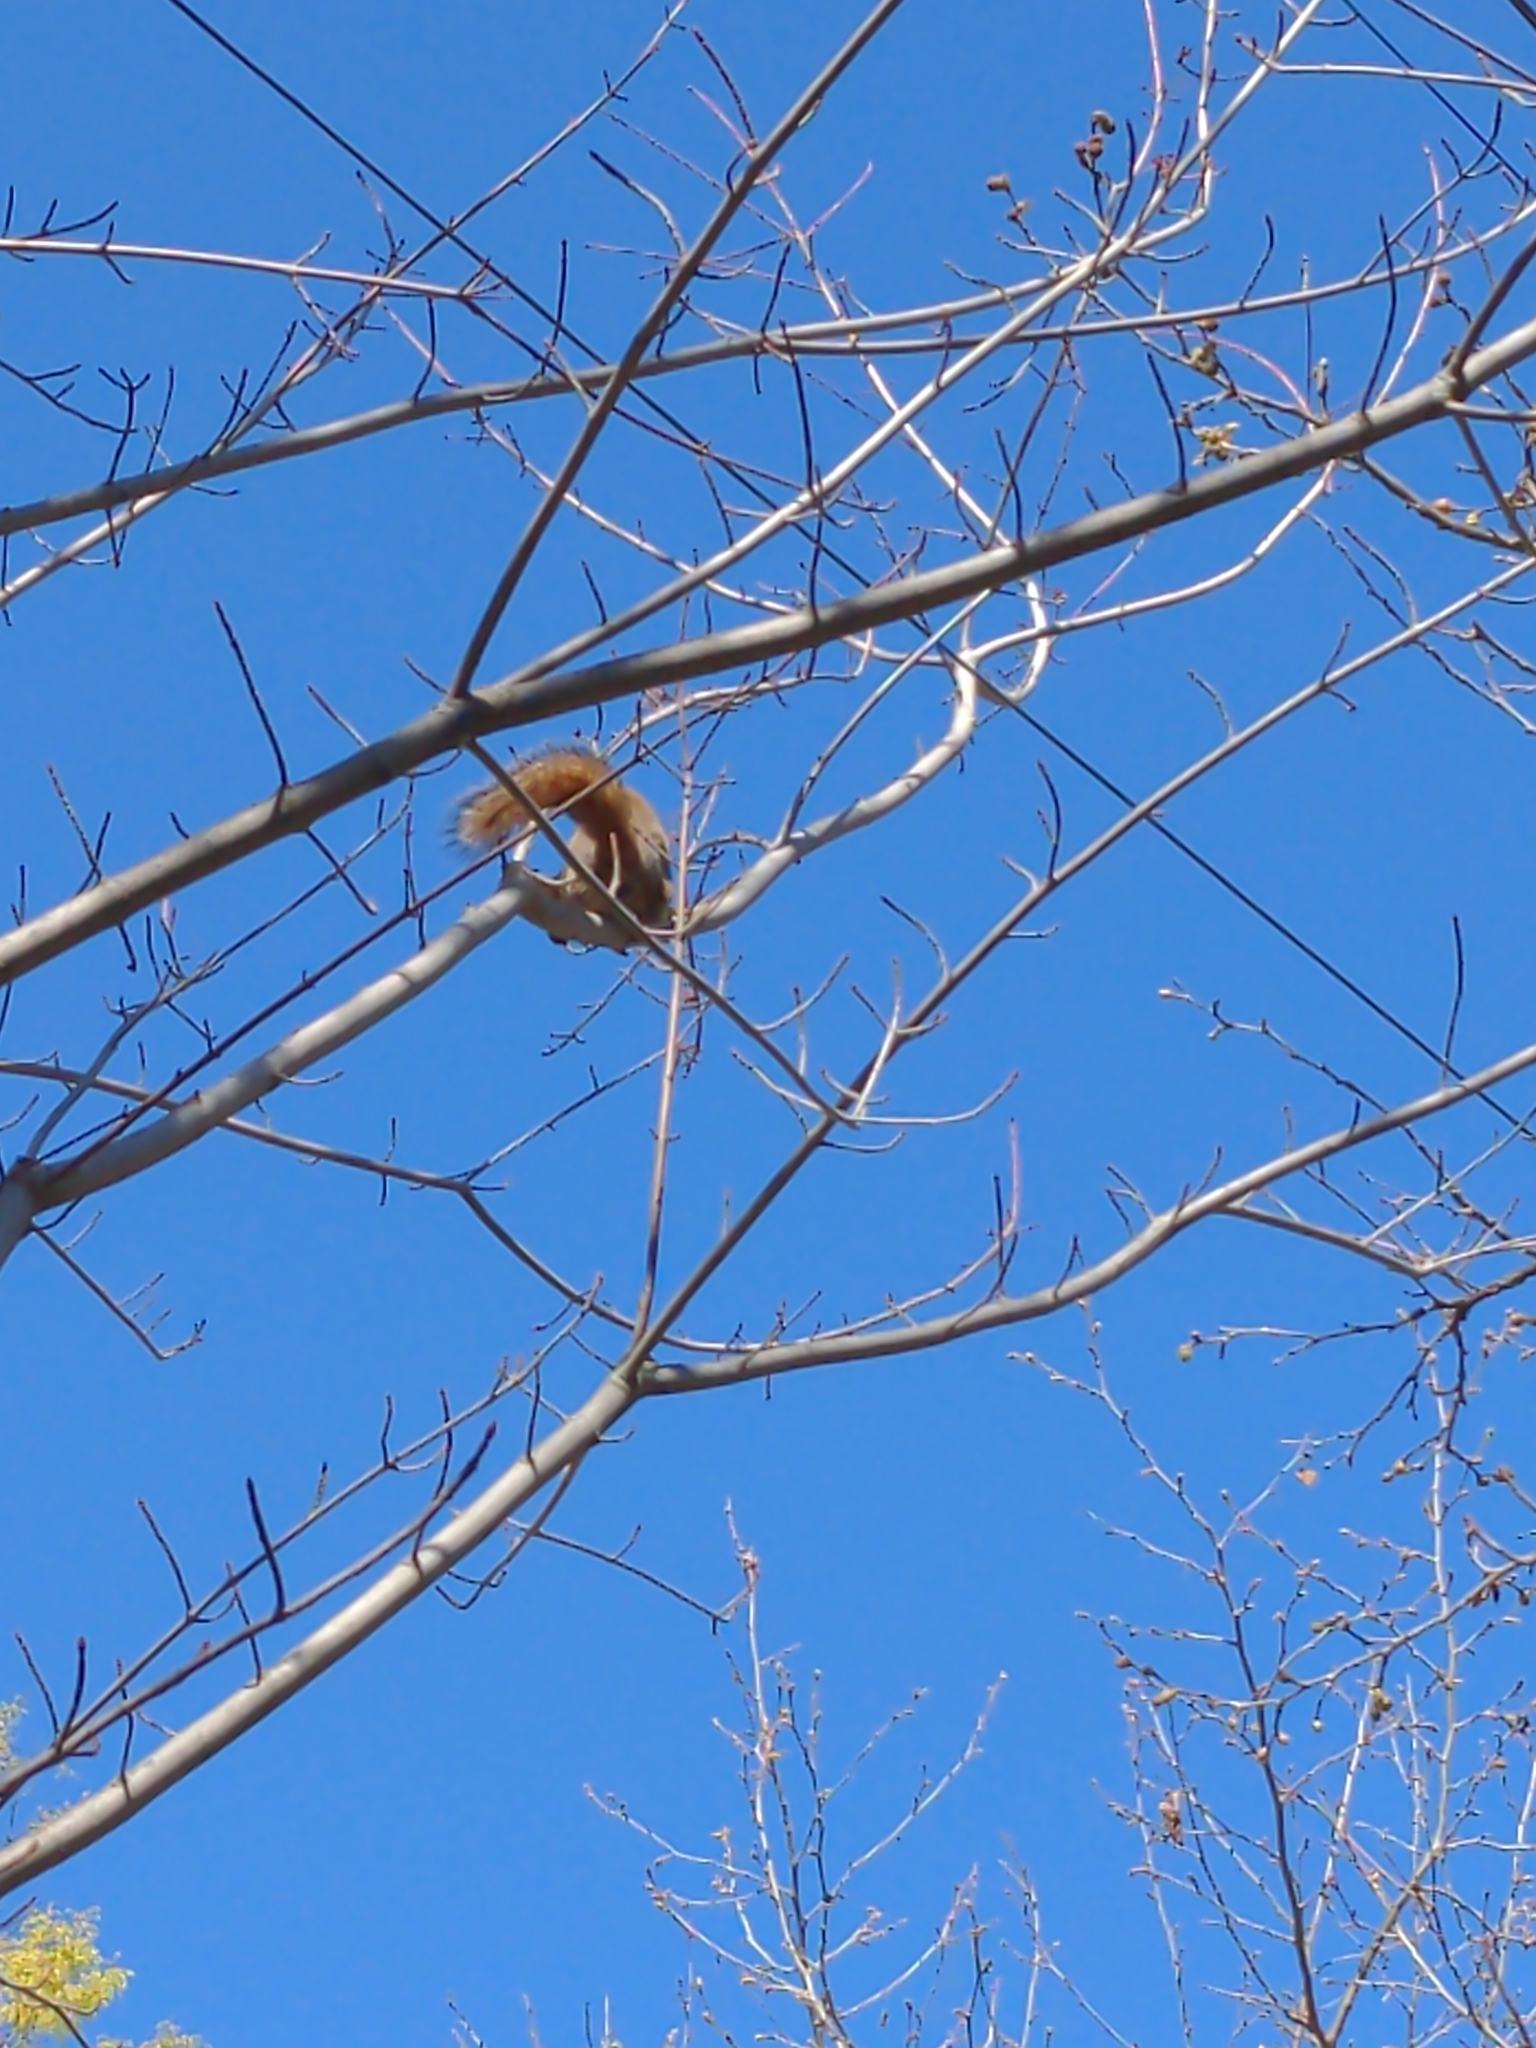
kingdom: Animalia
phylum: Chordata
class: Mammalia
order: Rodentia
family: Sciuridae
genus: Sciurus
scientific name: Sciurus niger
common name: Fox squirrel
